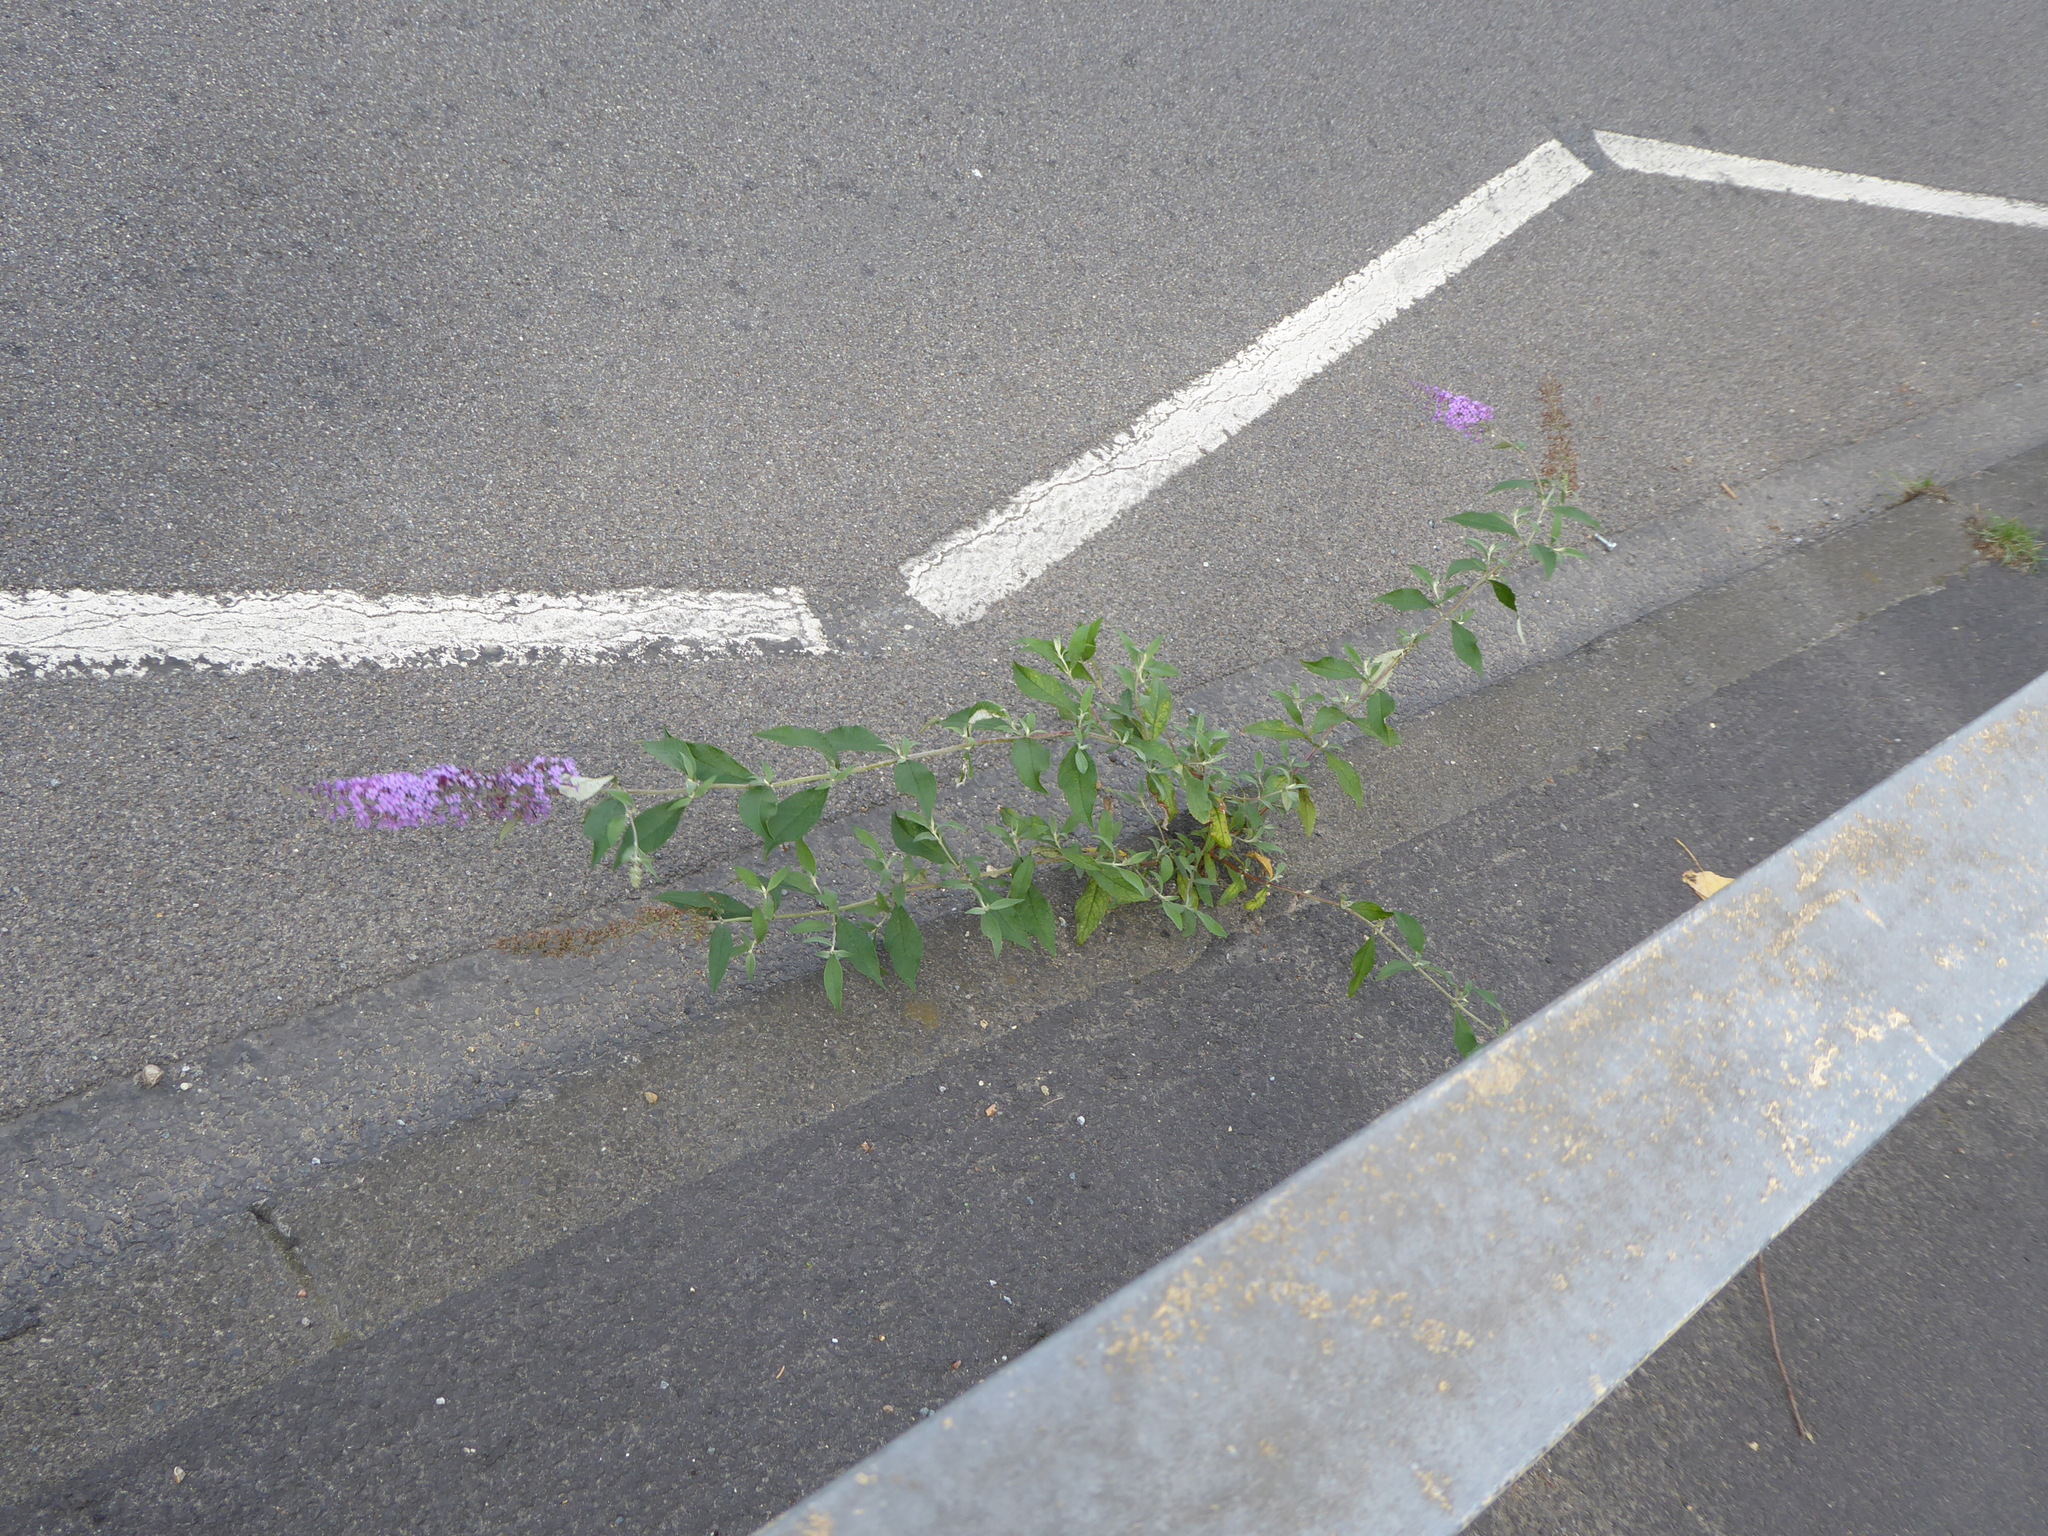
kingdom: Plantae
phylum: Tracheophyta
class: Magnoliopsida
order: Lamiales
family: Scrophulariaceae
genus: Buddleja
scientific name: Buddleja davidii
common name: Butterfly-bush
